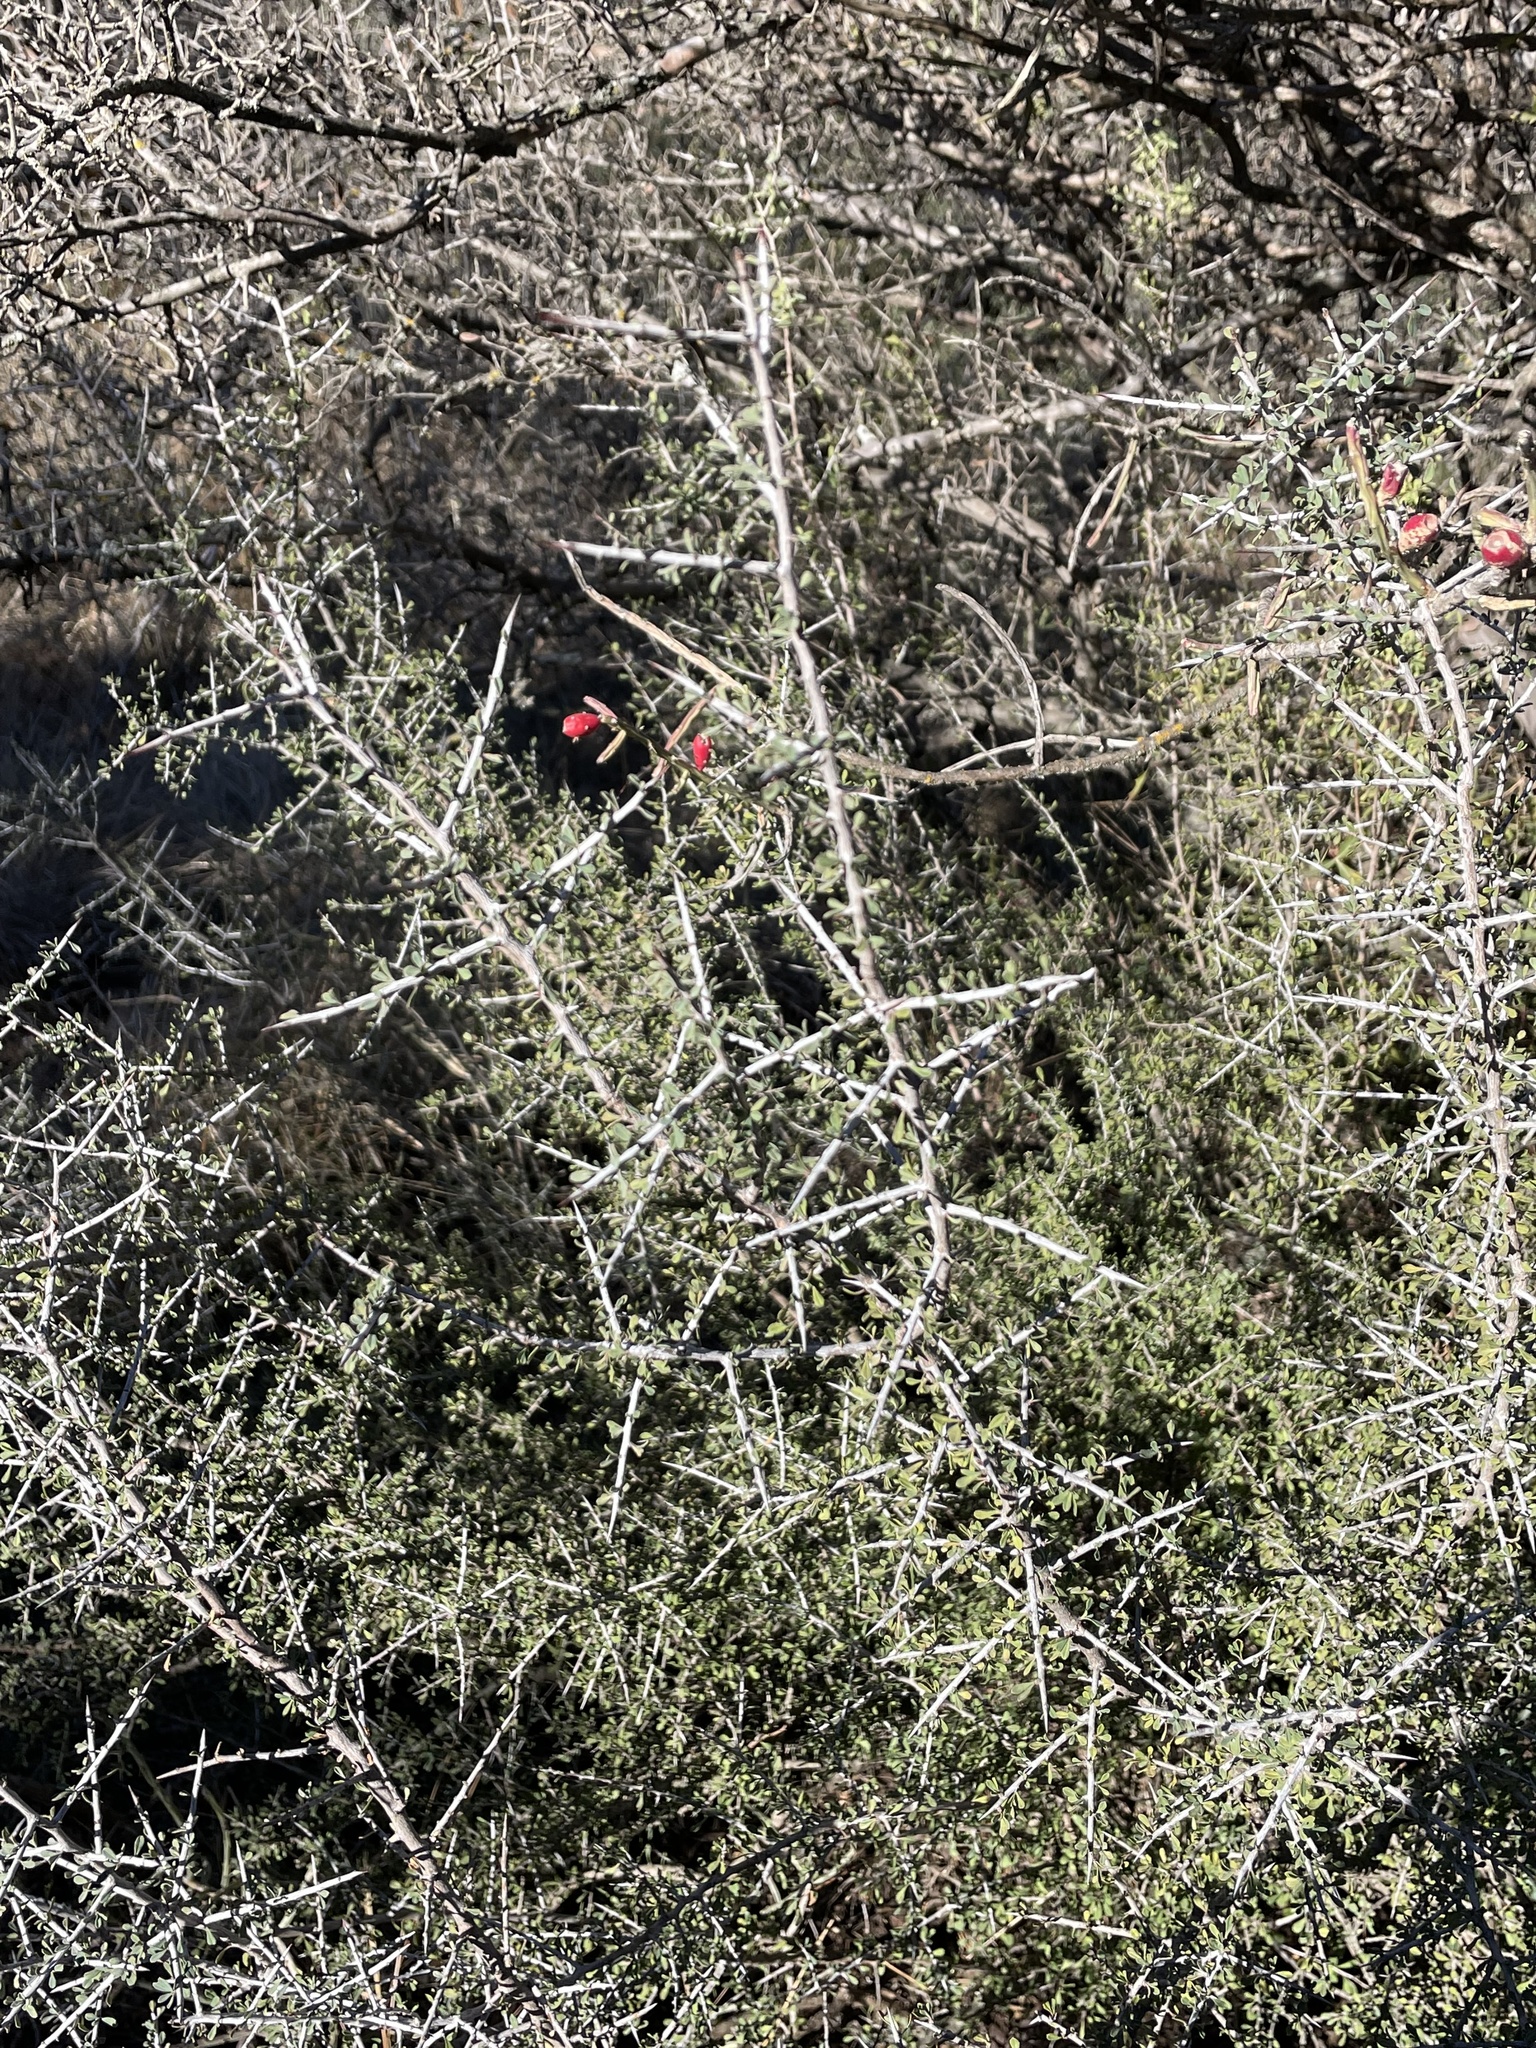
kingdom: Plantae
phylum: Tracheophyta
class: Magnoliopsida
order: Rosales
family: Rhamnaceae
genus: Condalia
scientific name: Condalia spathulata
